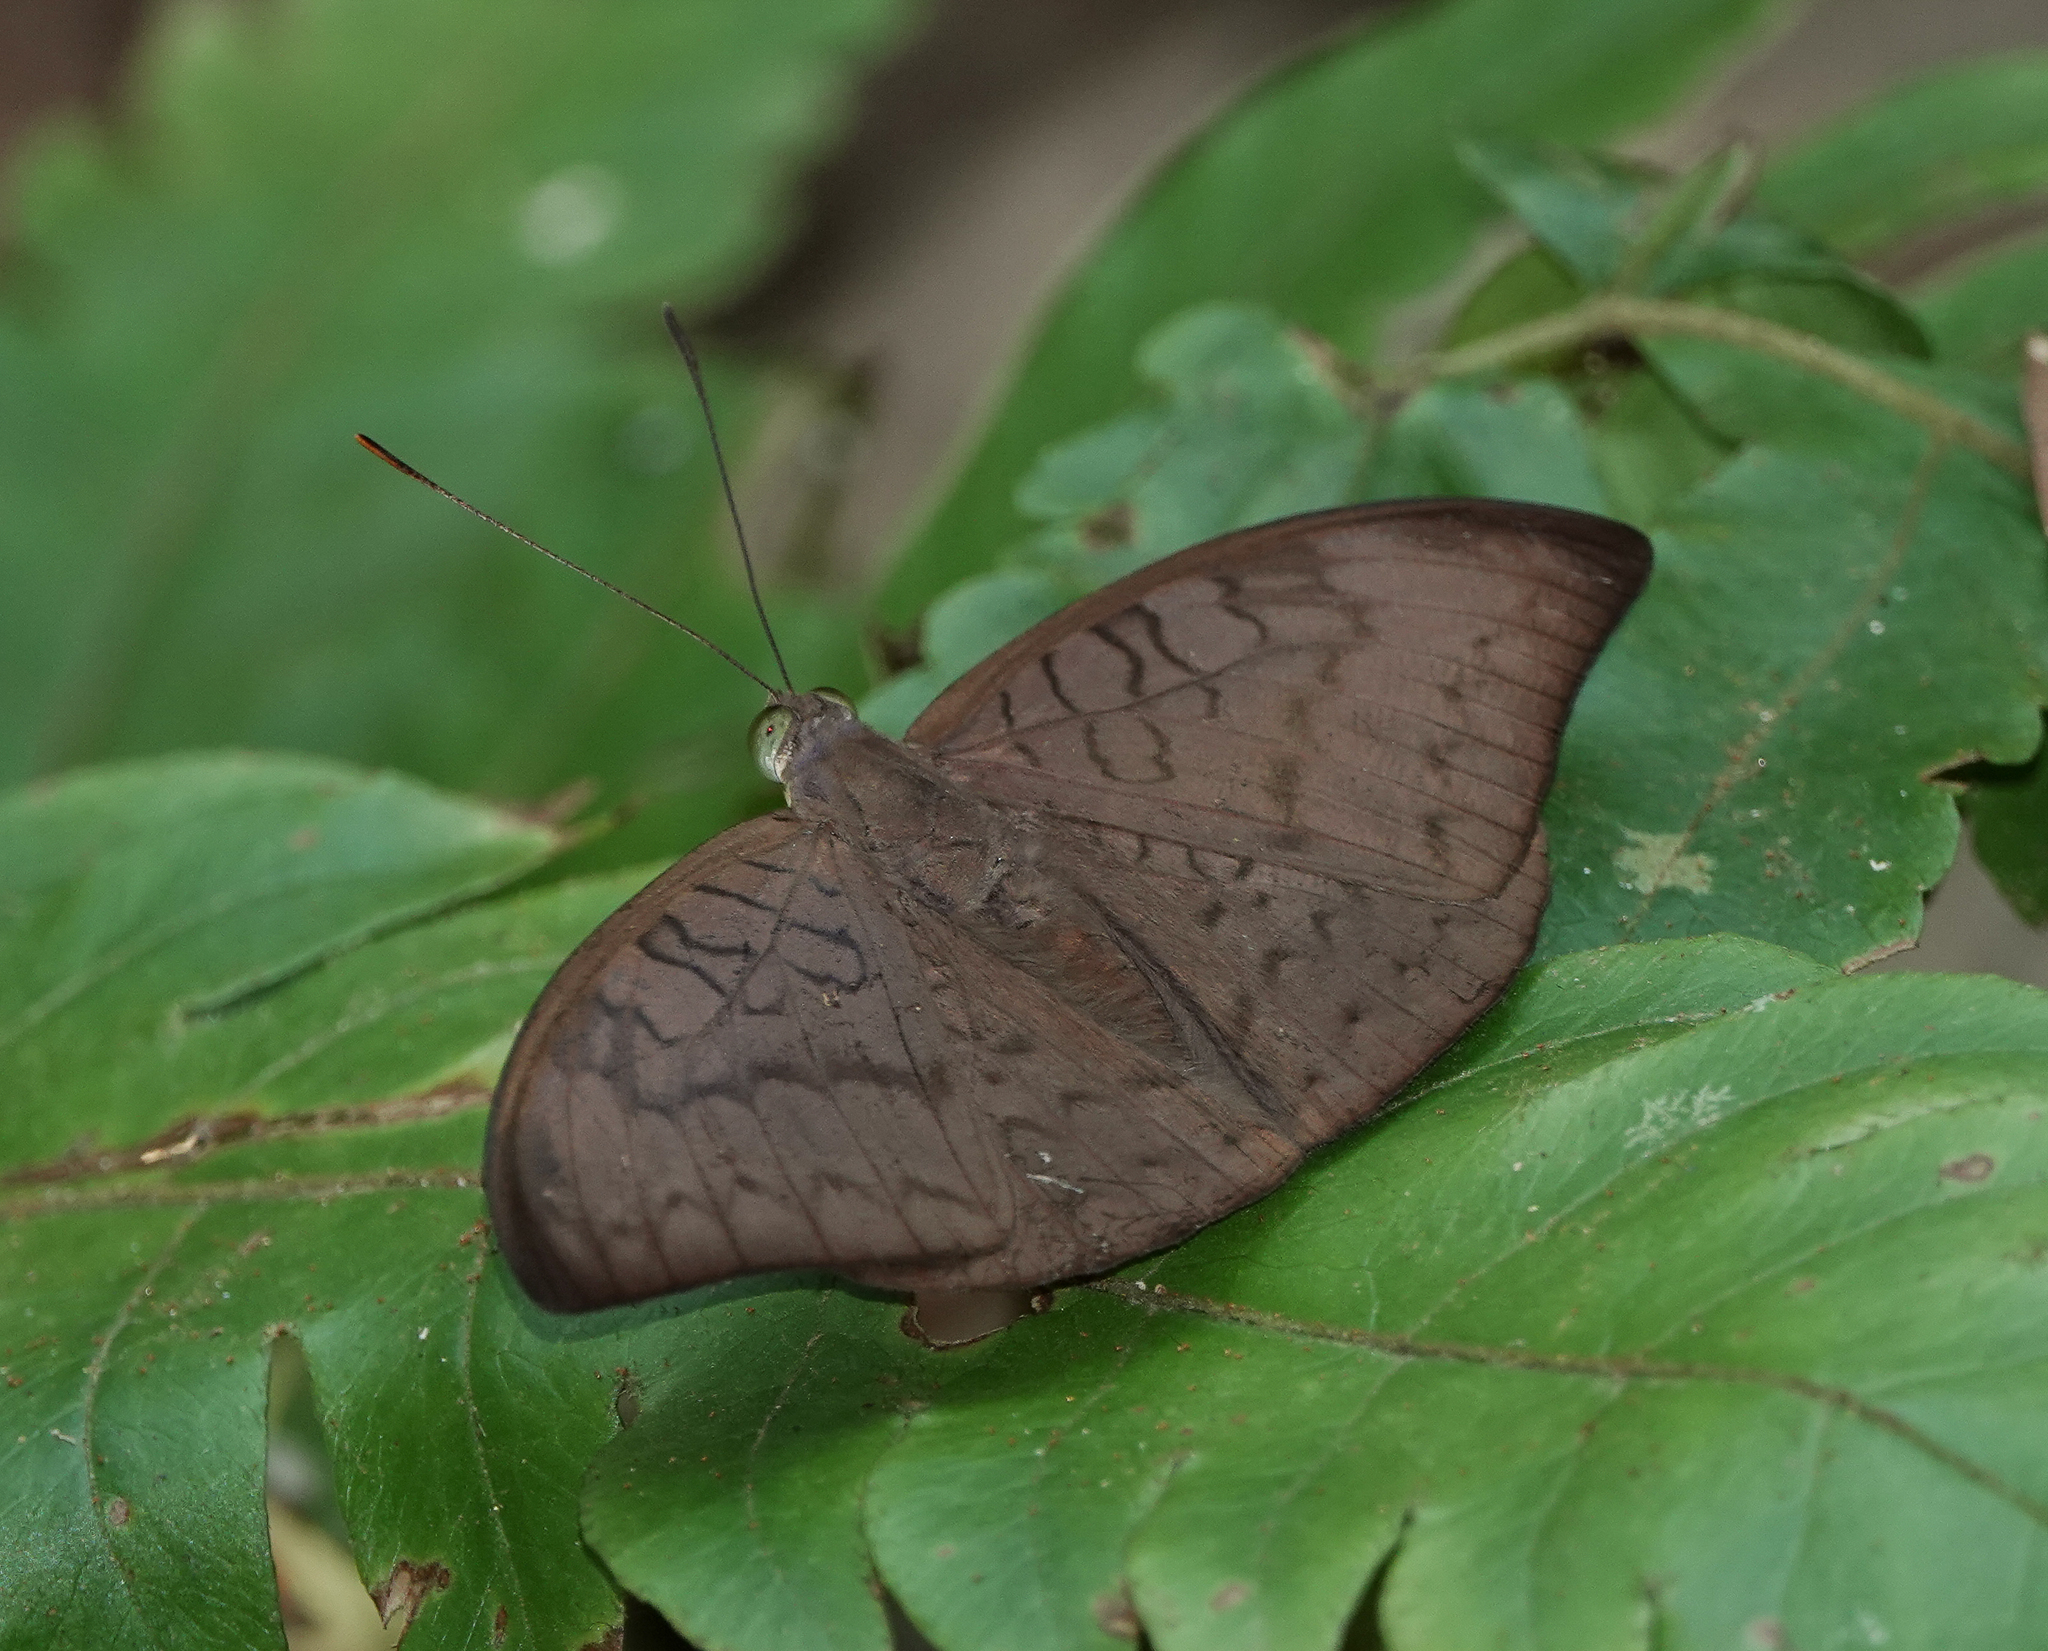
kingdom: Animalia
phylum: Arthropoda
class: Insecta
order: Lepidoptera
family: Nymphalidae
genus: Tanaecia
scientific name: Tanaecia jahnu
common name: Plain earl
